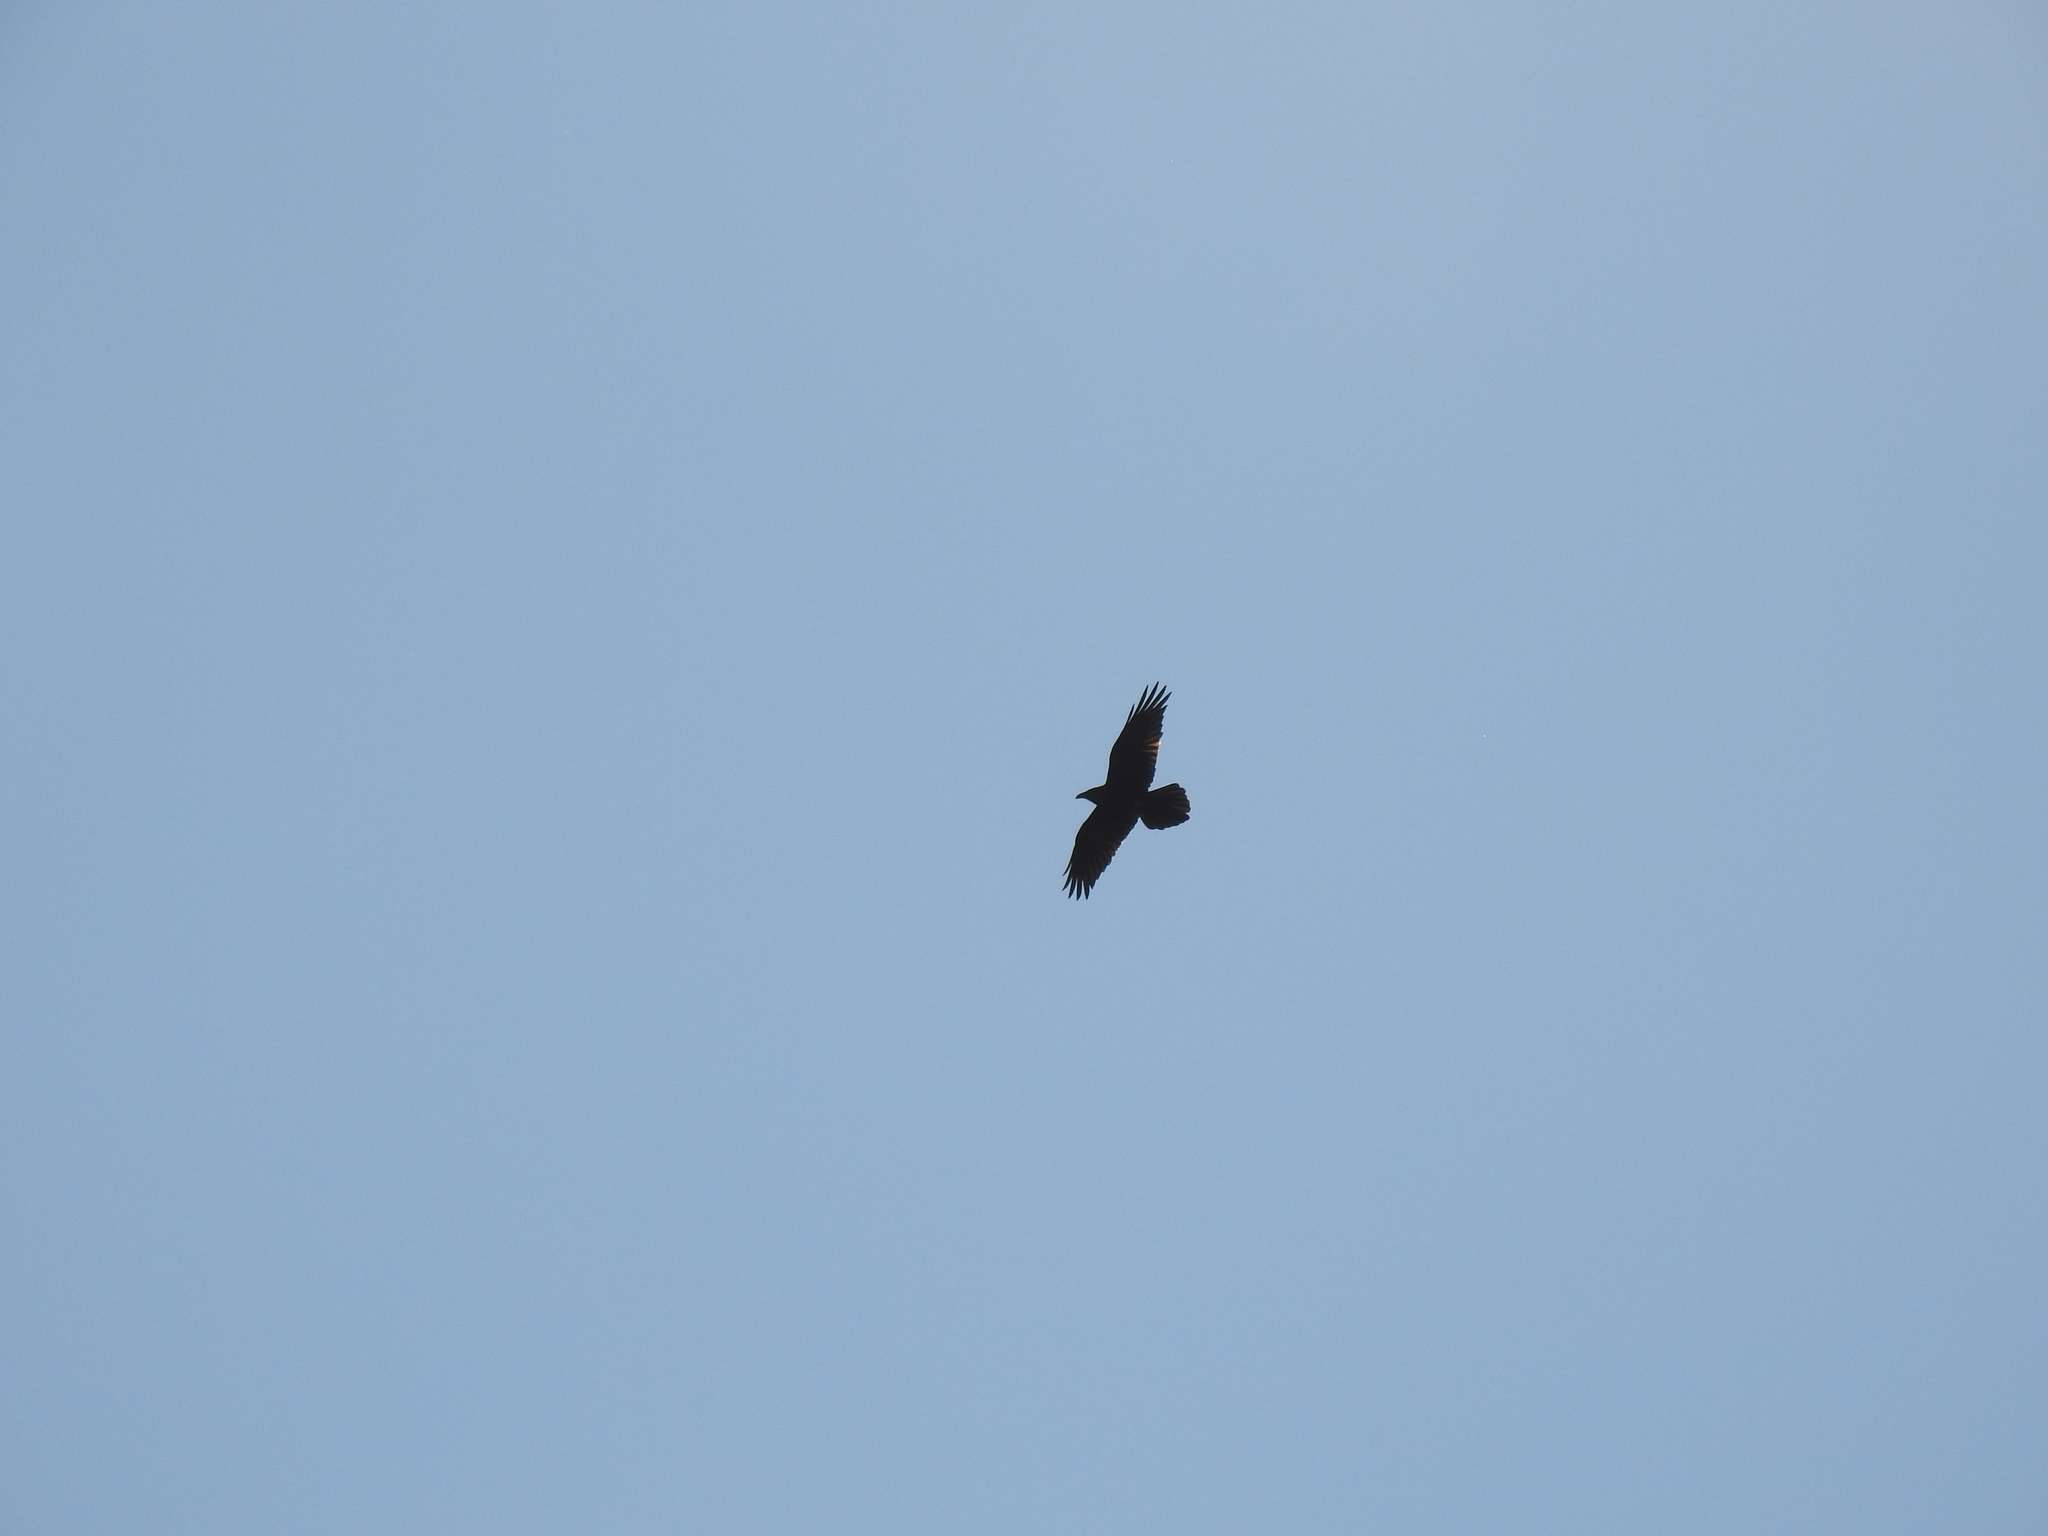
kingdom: Animalia
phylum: Chordata
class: Aves
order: Passeriformes
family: Corvidae
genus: Corvus
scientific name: Corvus corax
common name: Common raven
